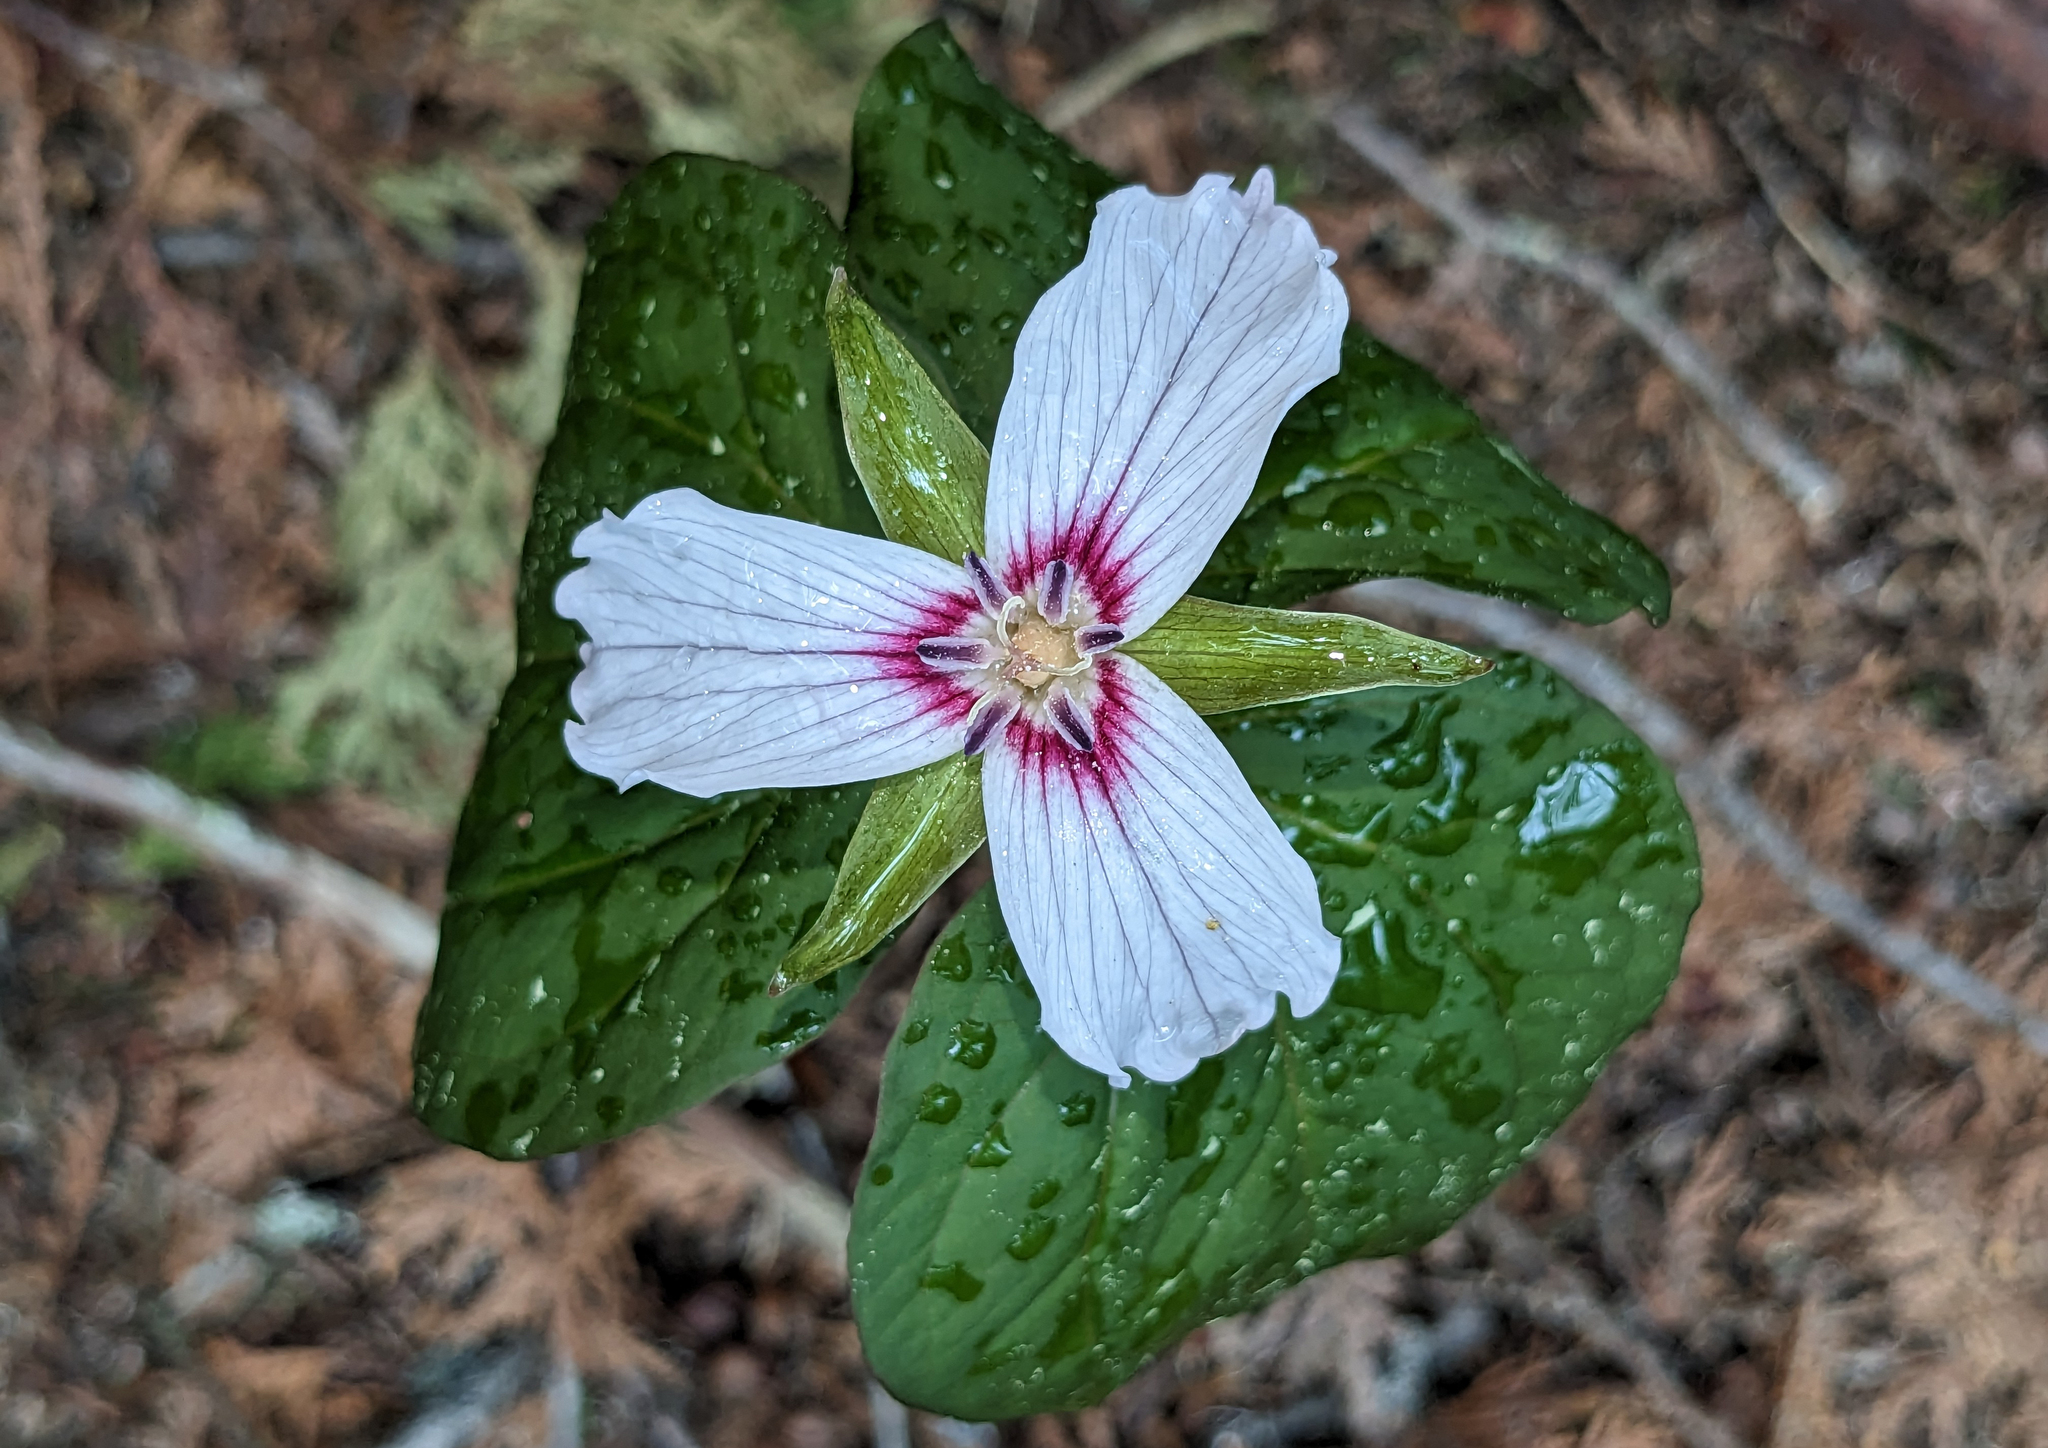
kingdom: Plantae
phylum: Tracheophyta
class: Liliopsida
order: Liliales
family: Melanthiaceae
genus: Trillium
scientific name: Trillium undulatum
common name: Paint trillium
